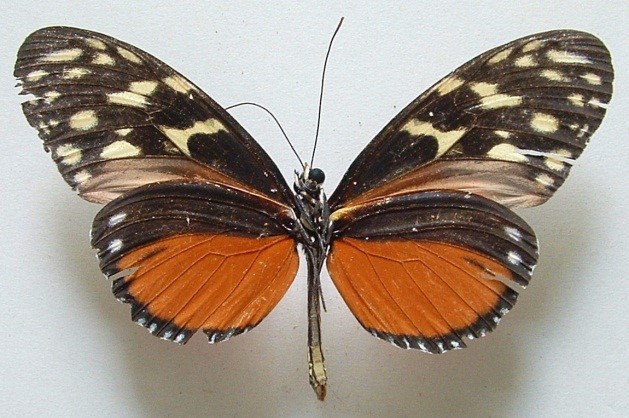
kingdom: Animalia
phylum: Arthropoda
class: Insecta
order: Lepidoptera
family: Nymphalidae
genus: Heliconius
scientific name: Heliconius hecale
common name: Tiger longwing
